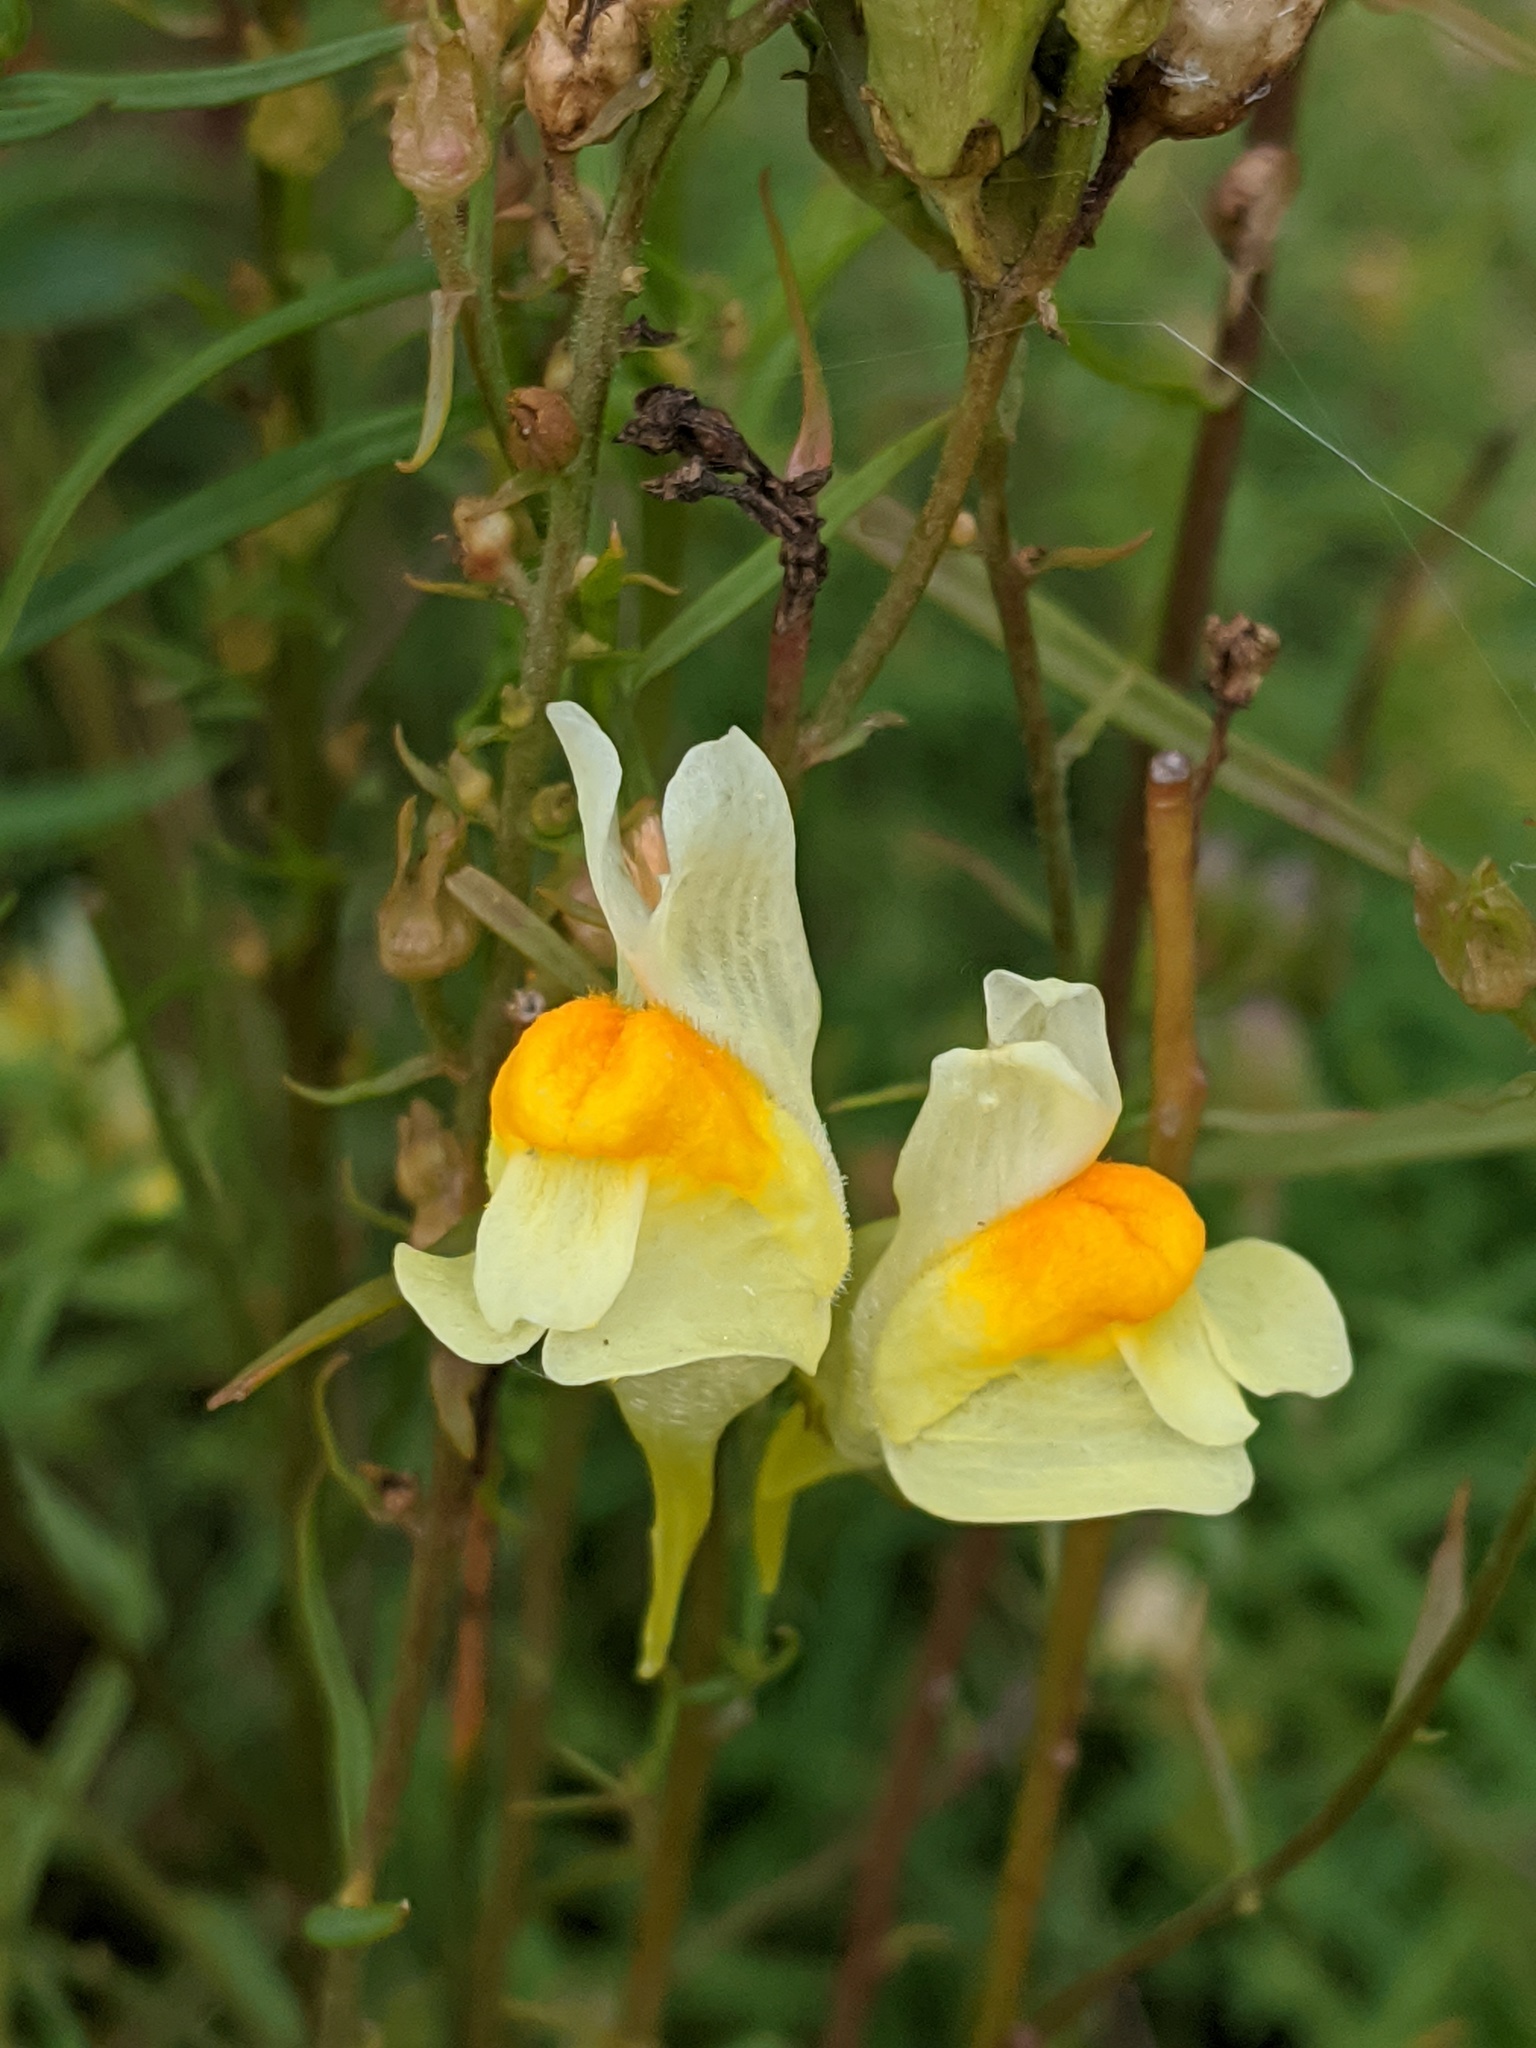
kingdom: Plantae
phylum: Tracheophyta
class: Magnoliopsida
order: Lamiales
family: Plantaginaceae
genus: Linaria
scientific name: Linaria vulgaris
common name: Butter and eggs
